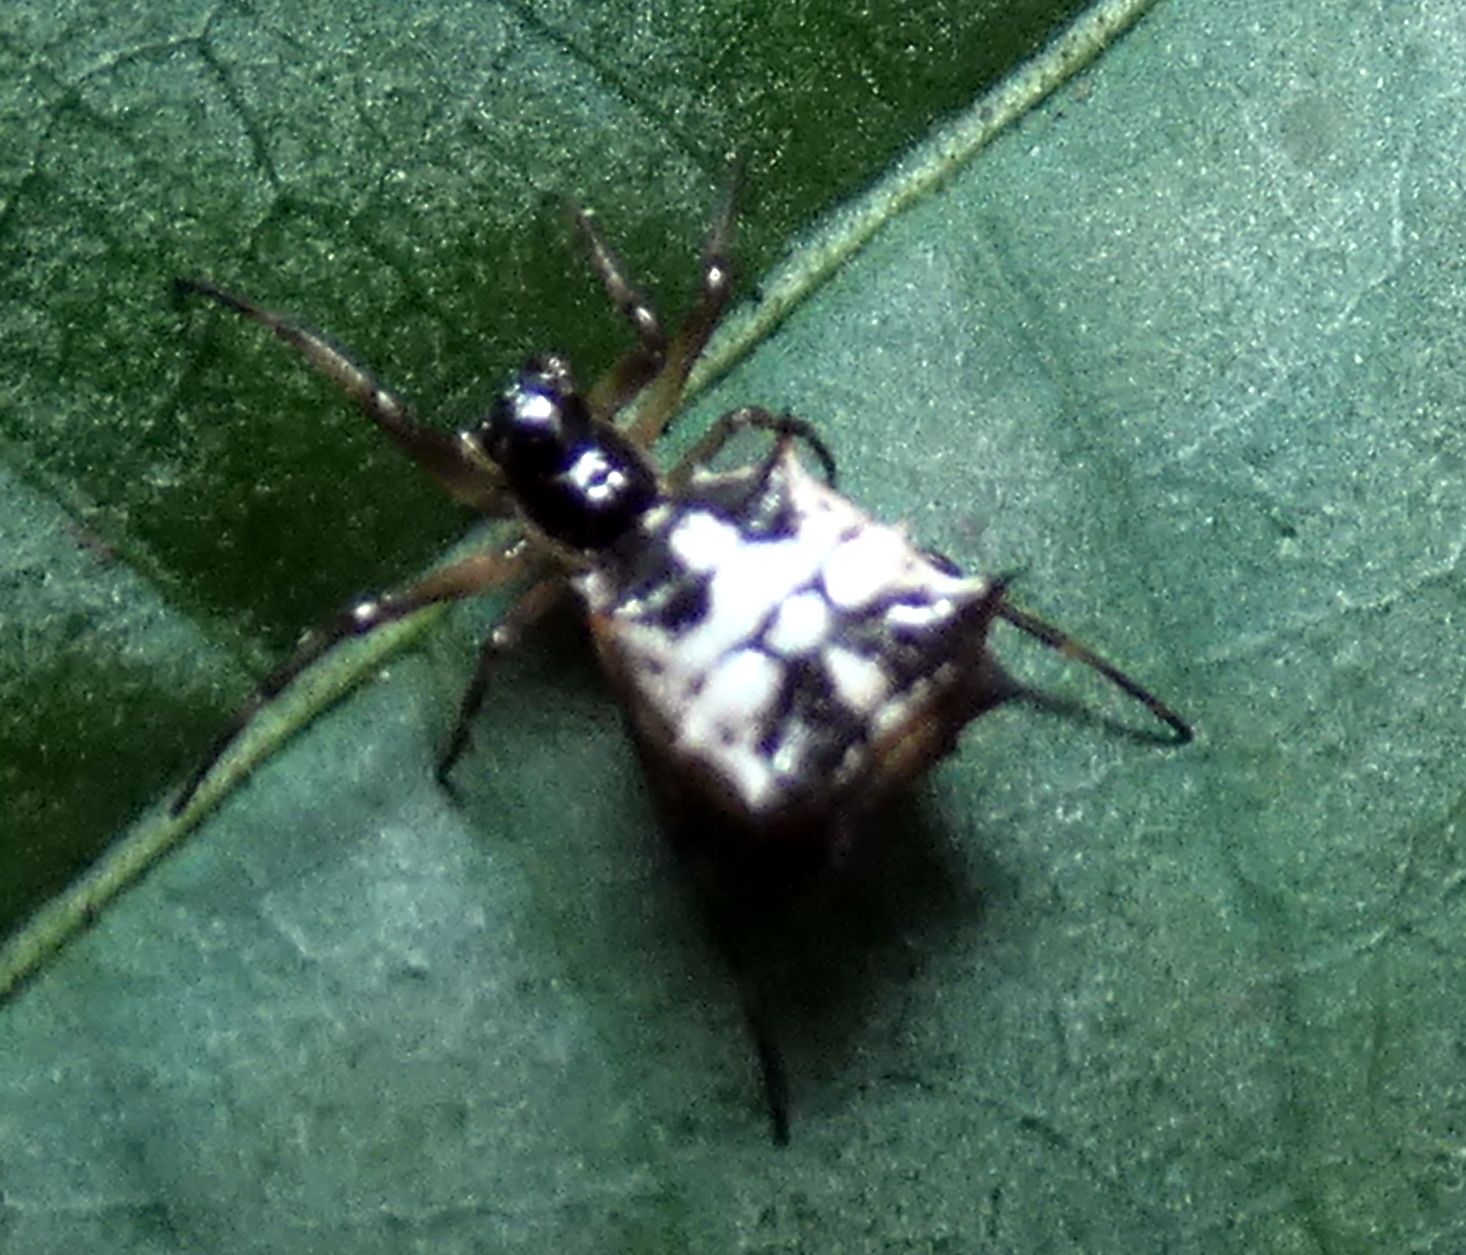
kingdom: Animalia
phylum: Arthropoda
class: Arachnida
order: Araneae
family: Araneidae
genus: Micrathena
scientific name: Micrathena picta
